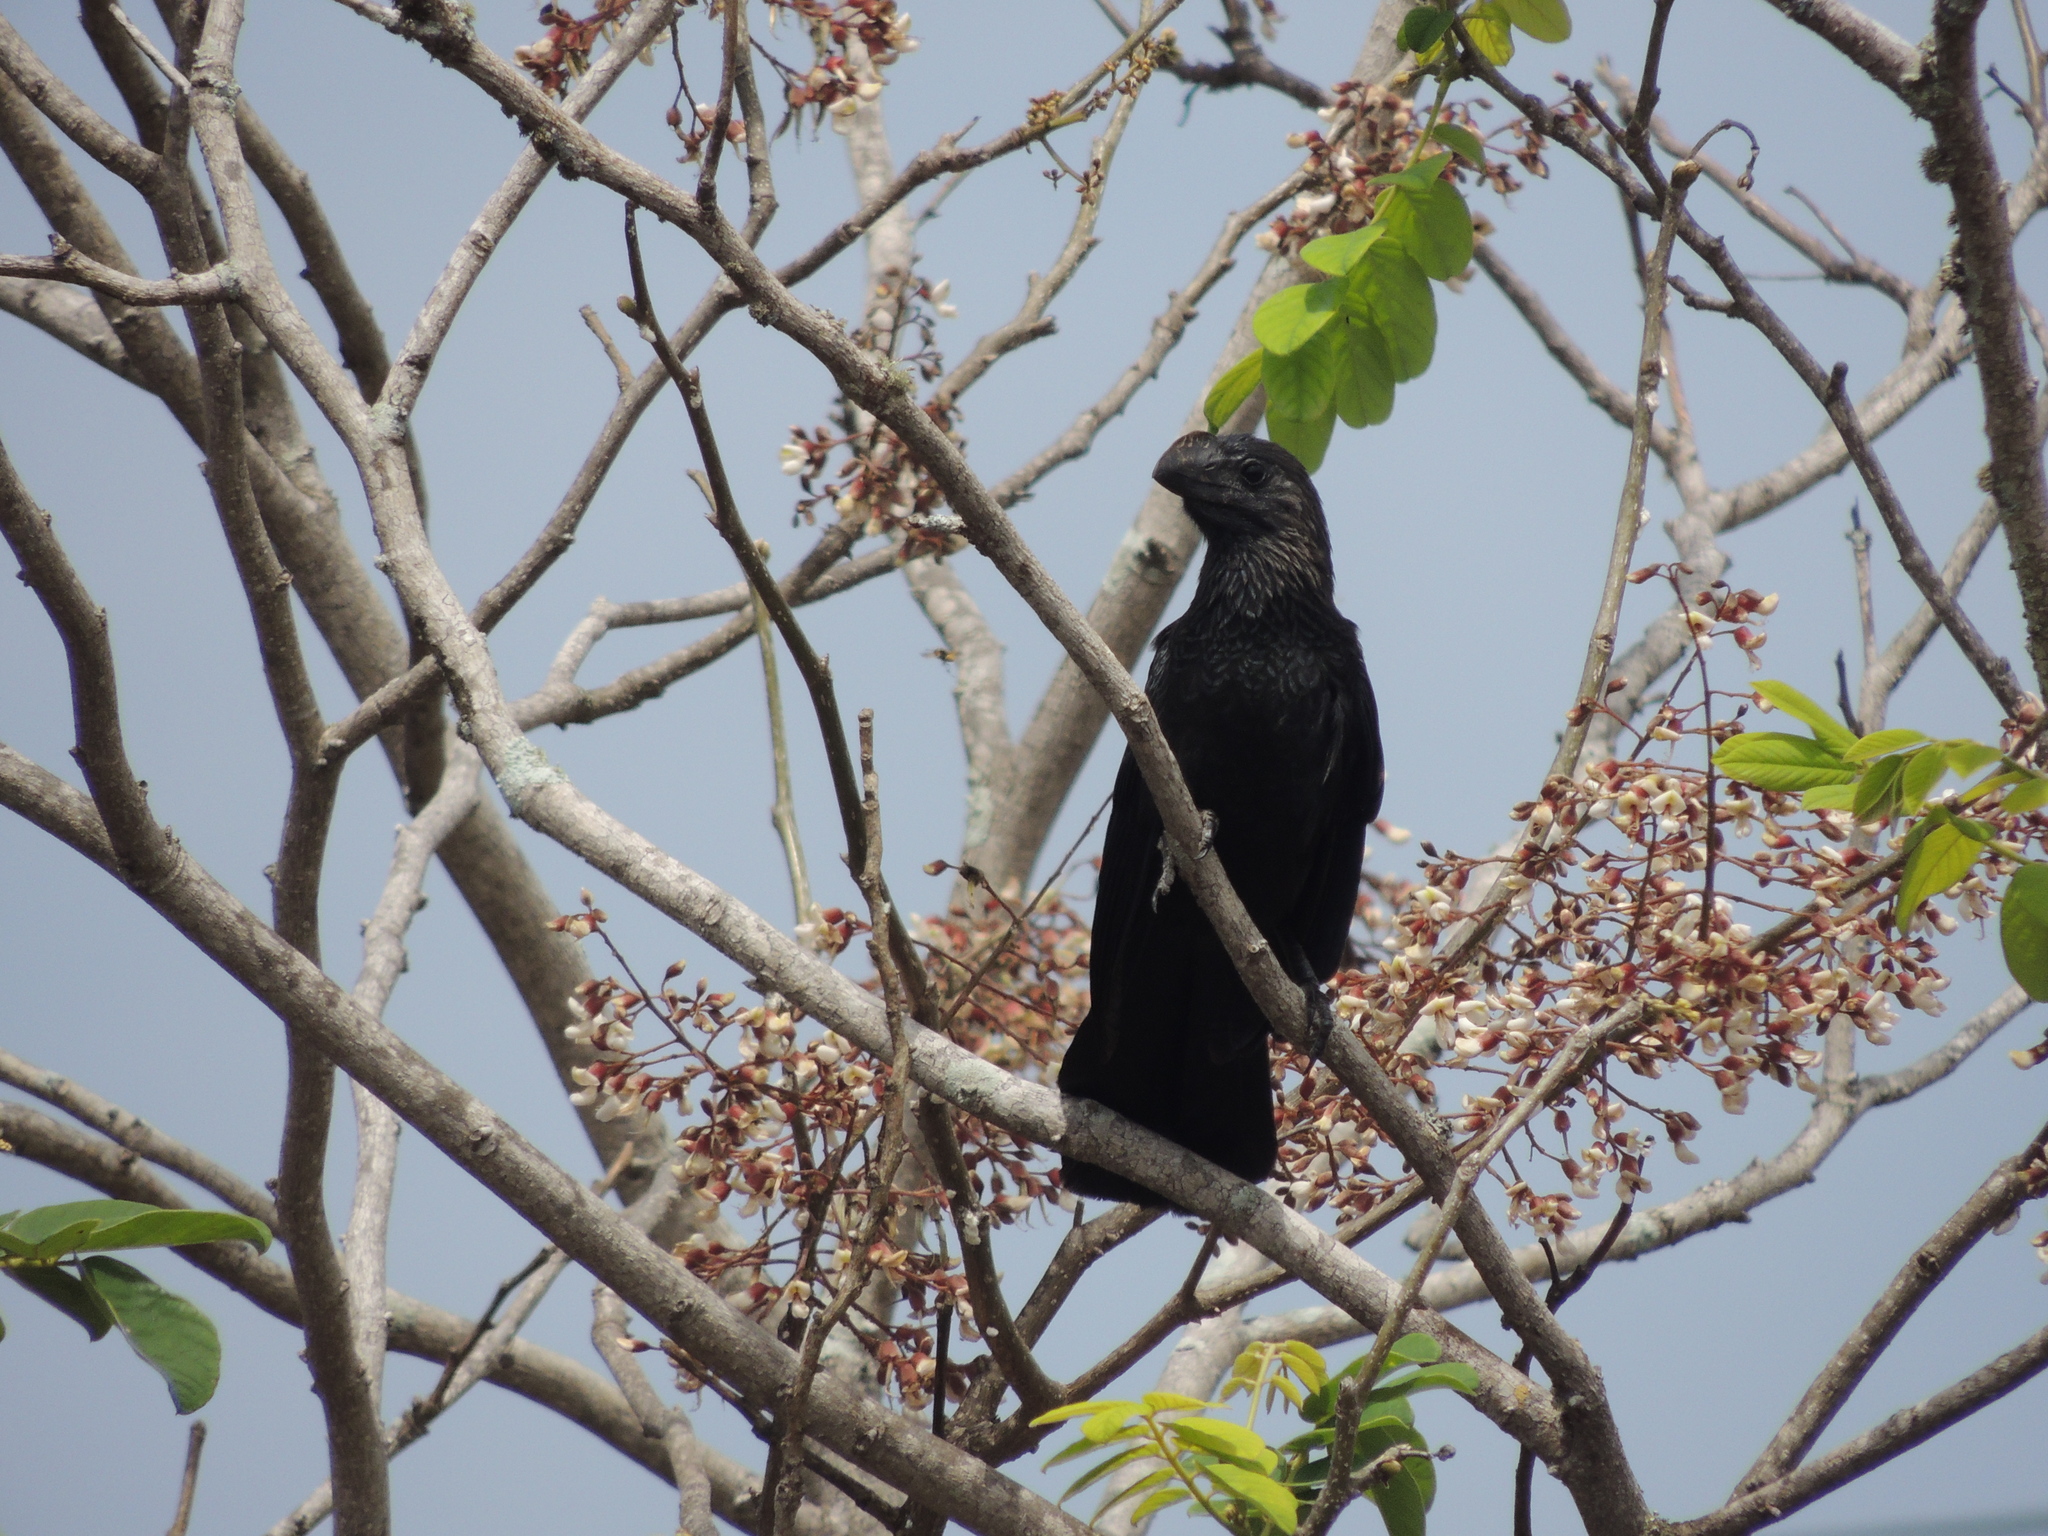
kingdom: Animalia
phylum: Chordata
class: Aves
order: Cuculiformes
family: Cuculidae
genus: Crotophaga
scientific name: Crotophaga ani
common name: Smooth-billed ani
